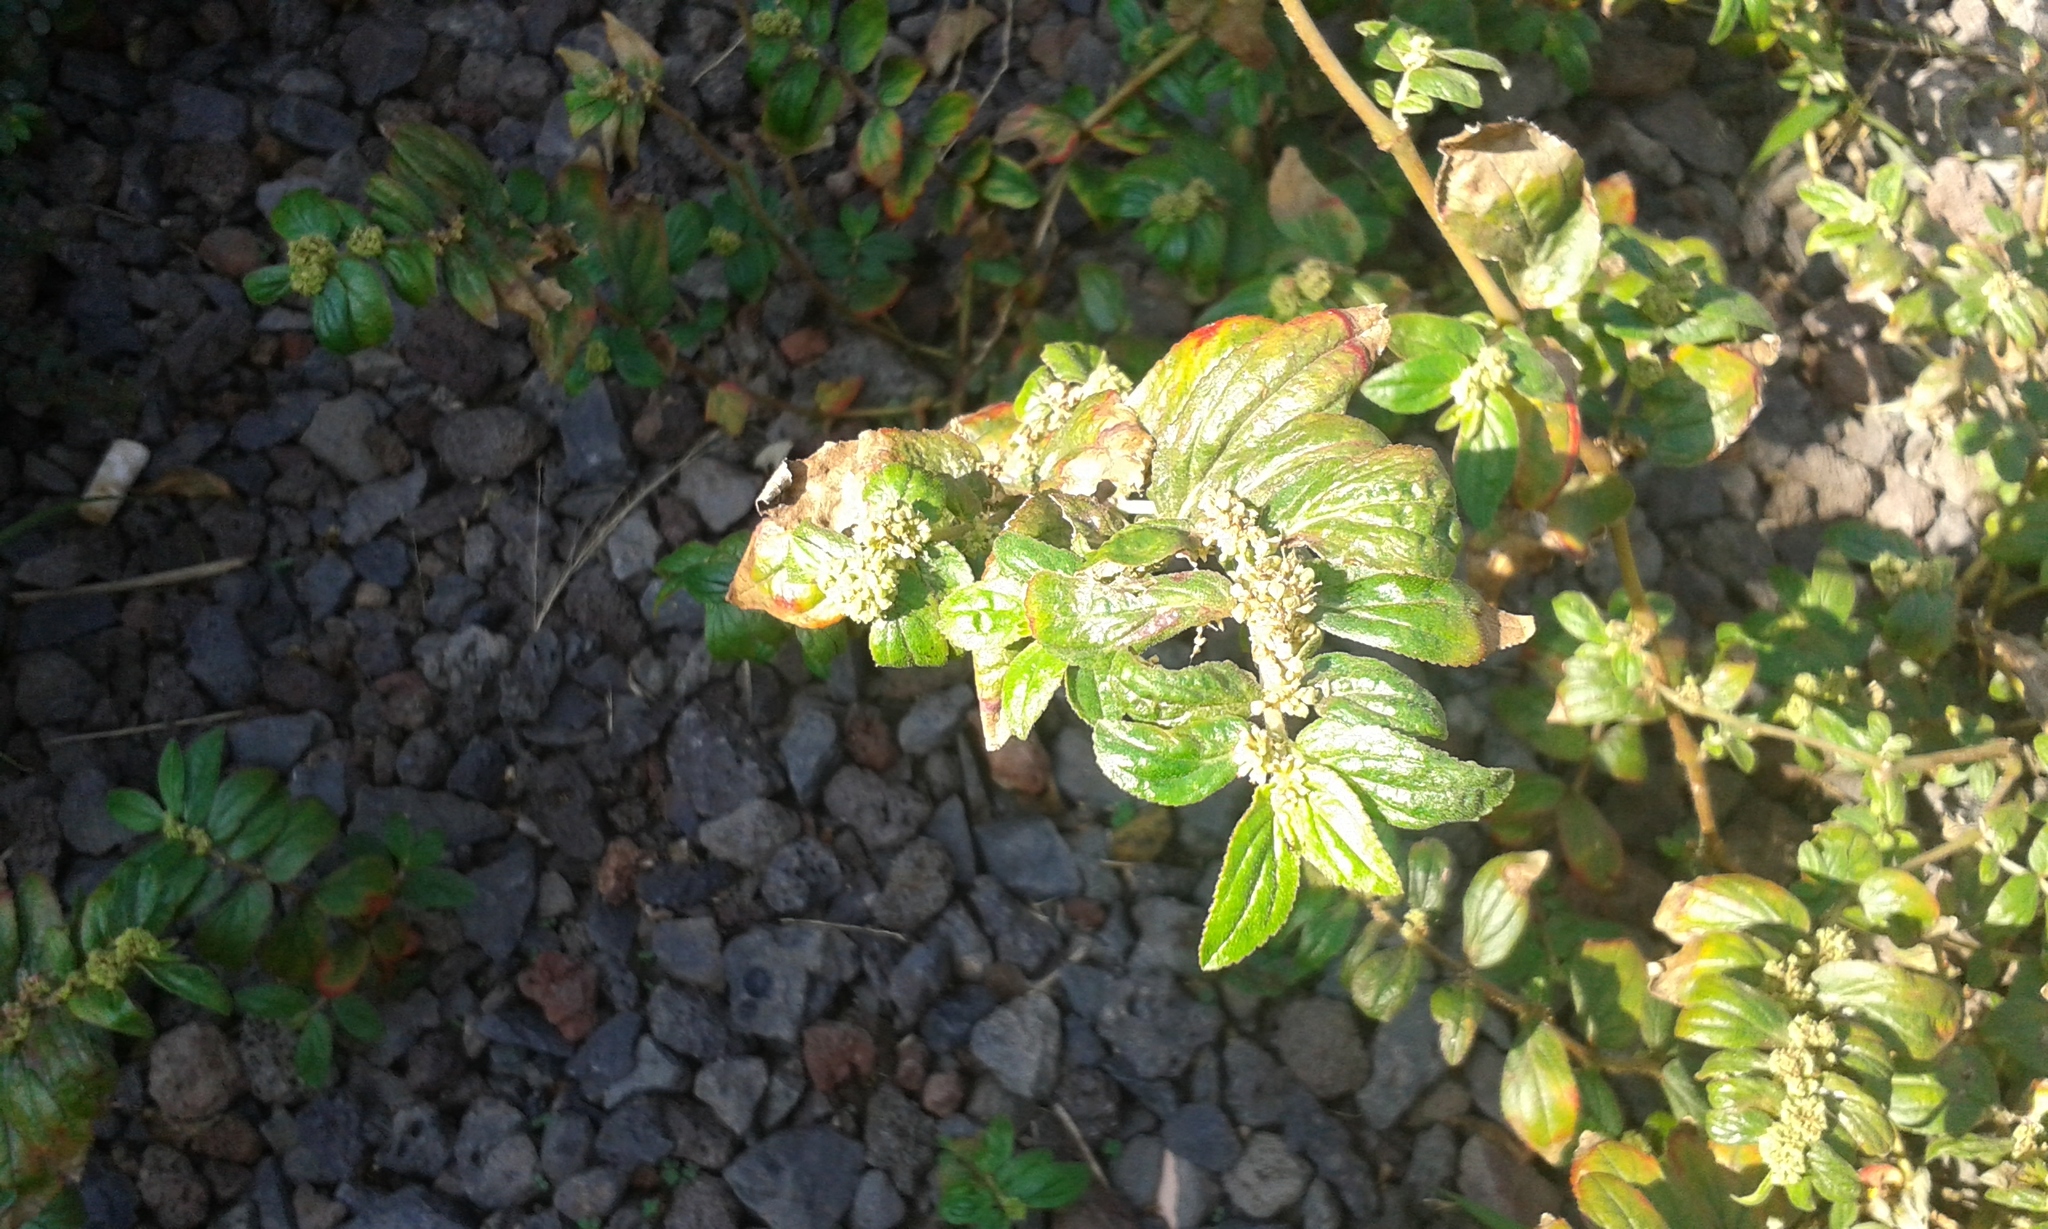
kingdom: Plantae
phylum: Tracheophyta
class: Magnoliopsida
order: Malpighiales
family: Euphorbiaceae
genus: Euphorbia
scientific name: Euphorbia hirta
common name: Pillpod sandmat
